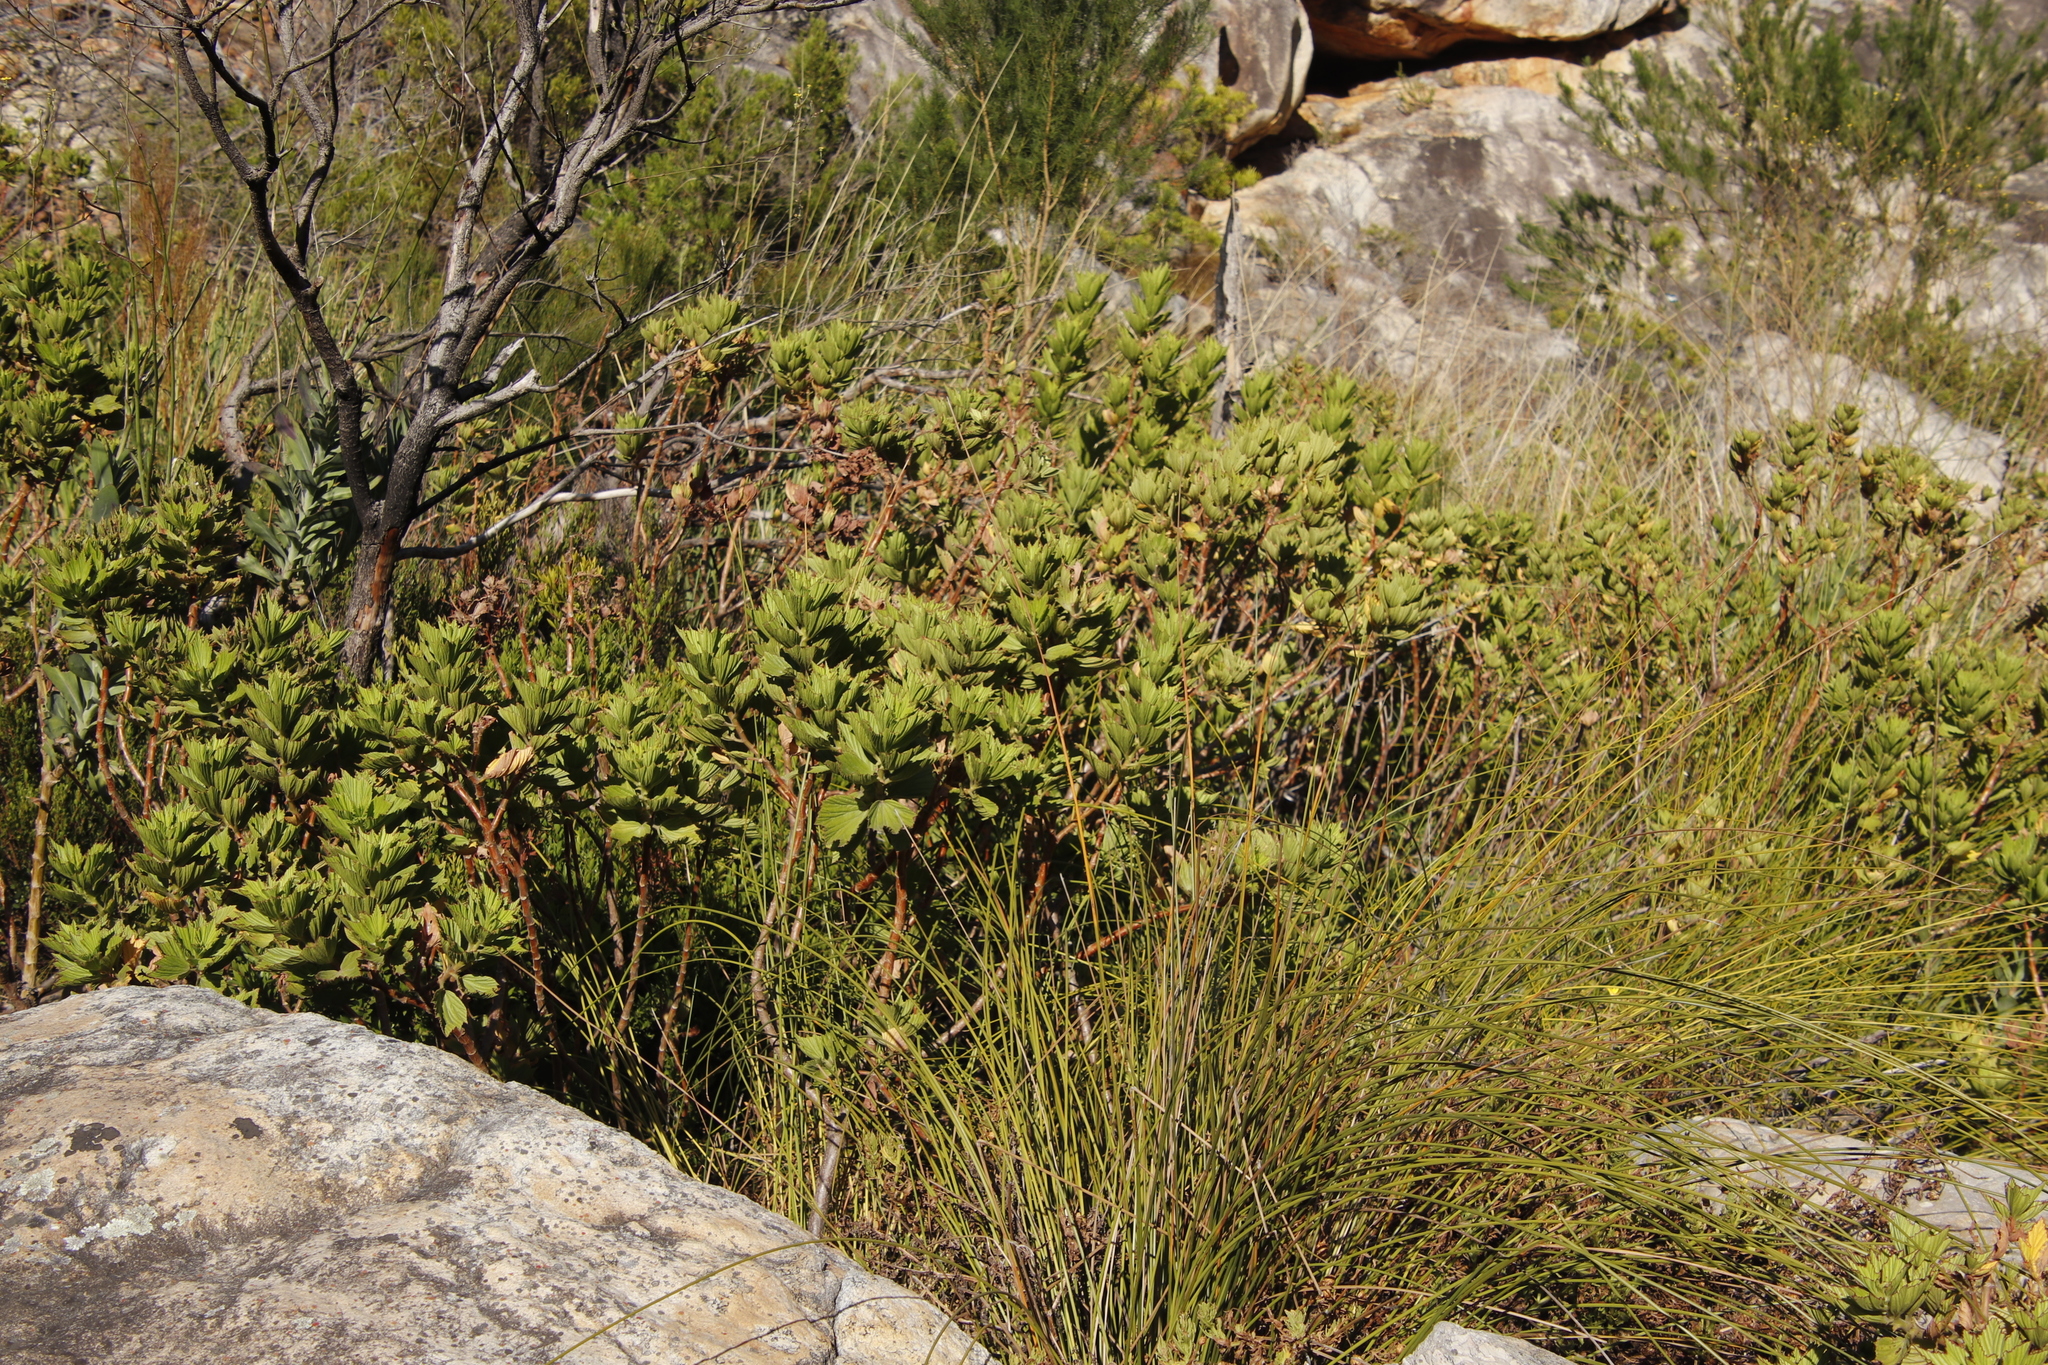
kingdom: Plantae
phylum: Tracheophyta
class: Magnoliopsida
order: Geraniales
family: Geraniaceae
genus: Pelargonium
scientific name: Pelargonium cucullatum
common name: Tree pelargonium
